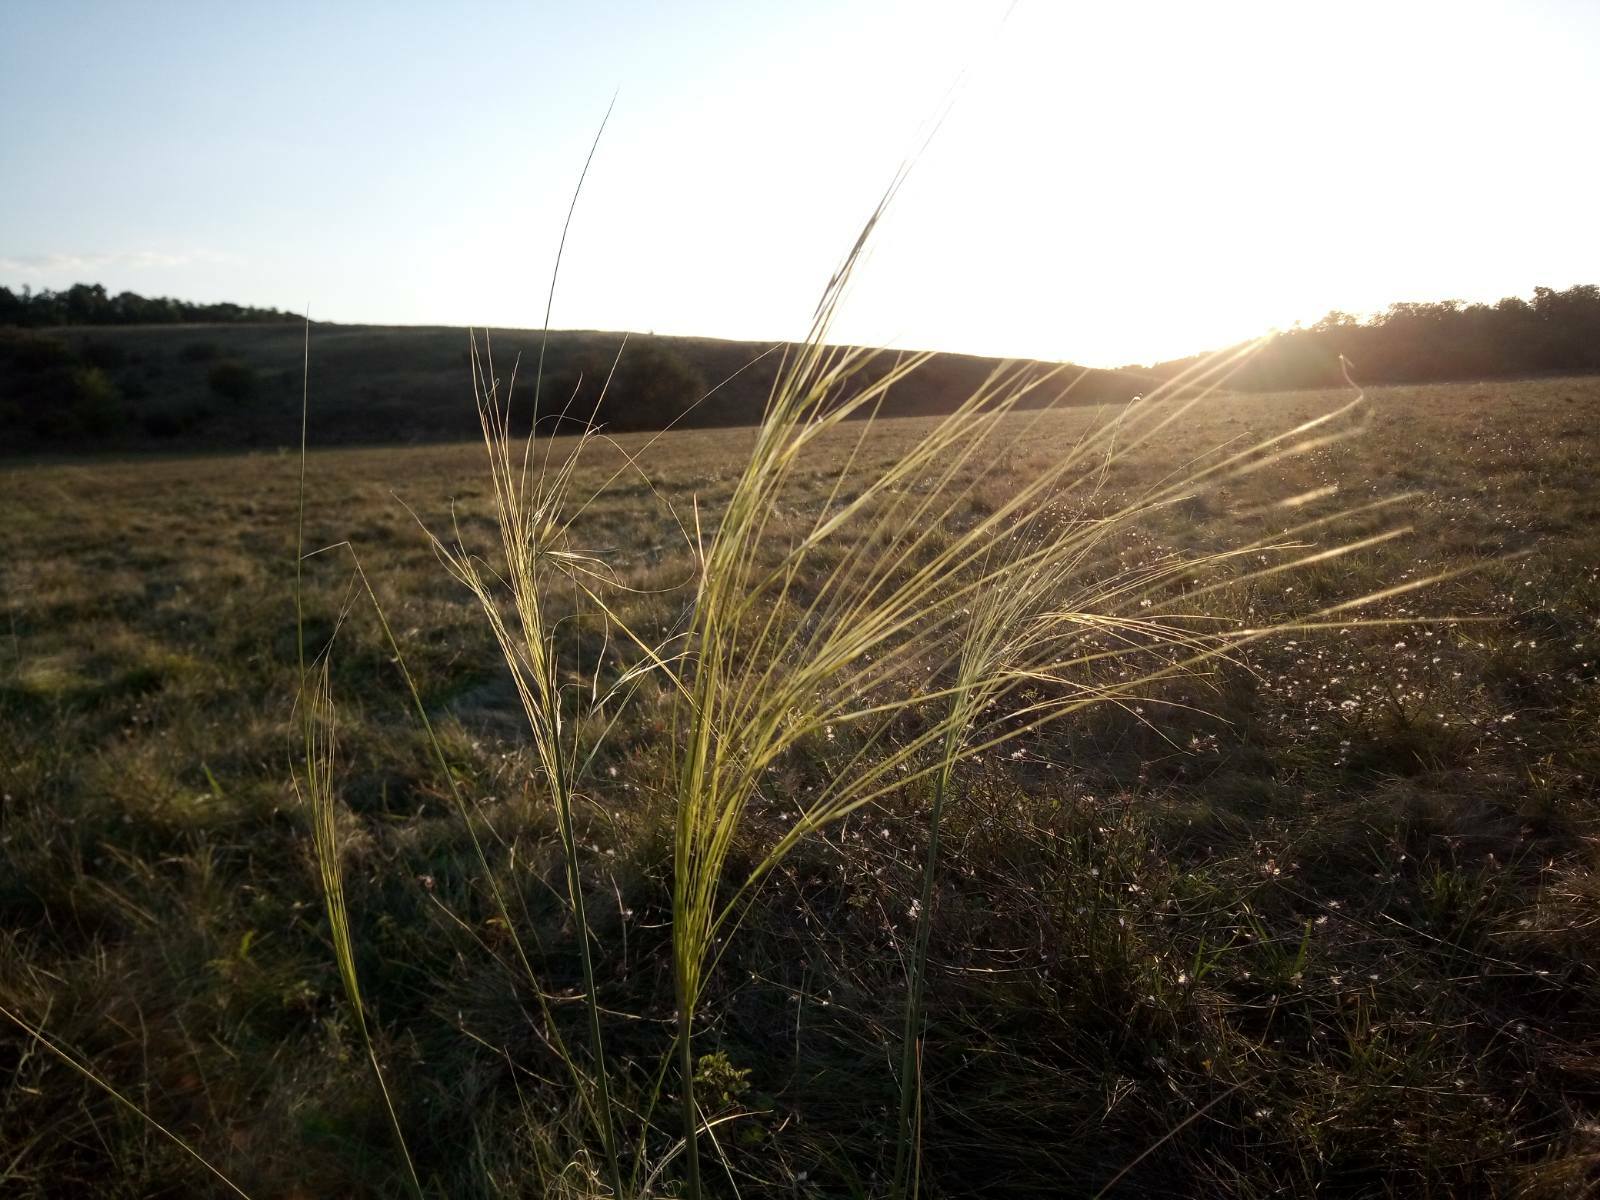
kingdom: Plantae
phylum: Tracheophyta
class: Liliopsida
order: Poales
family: Poaceae
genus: Stipa
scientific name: Stipa capillata
